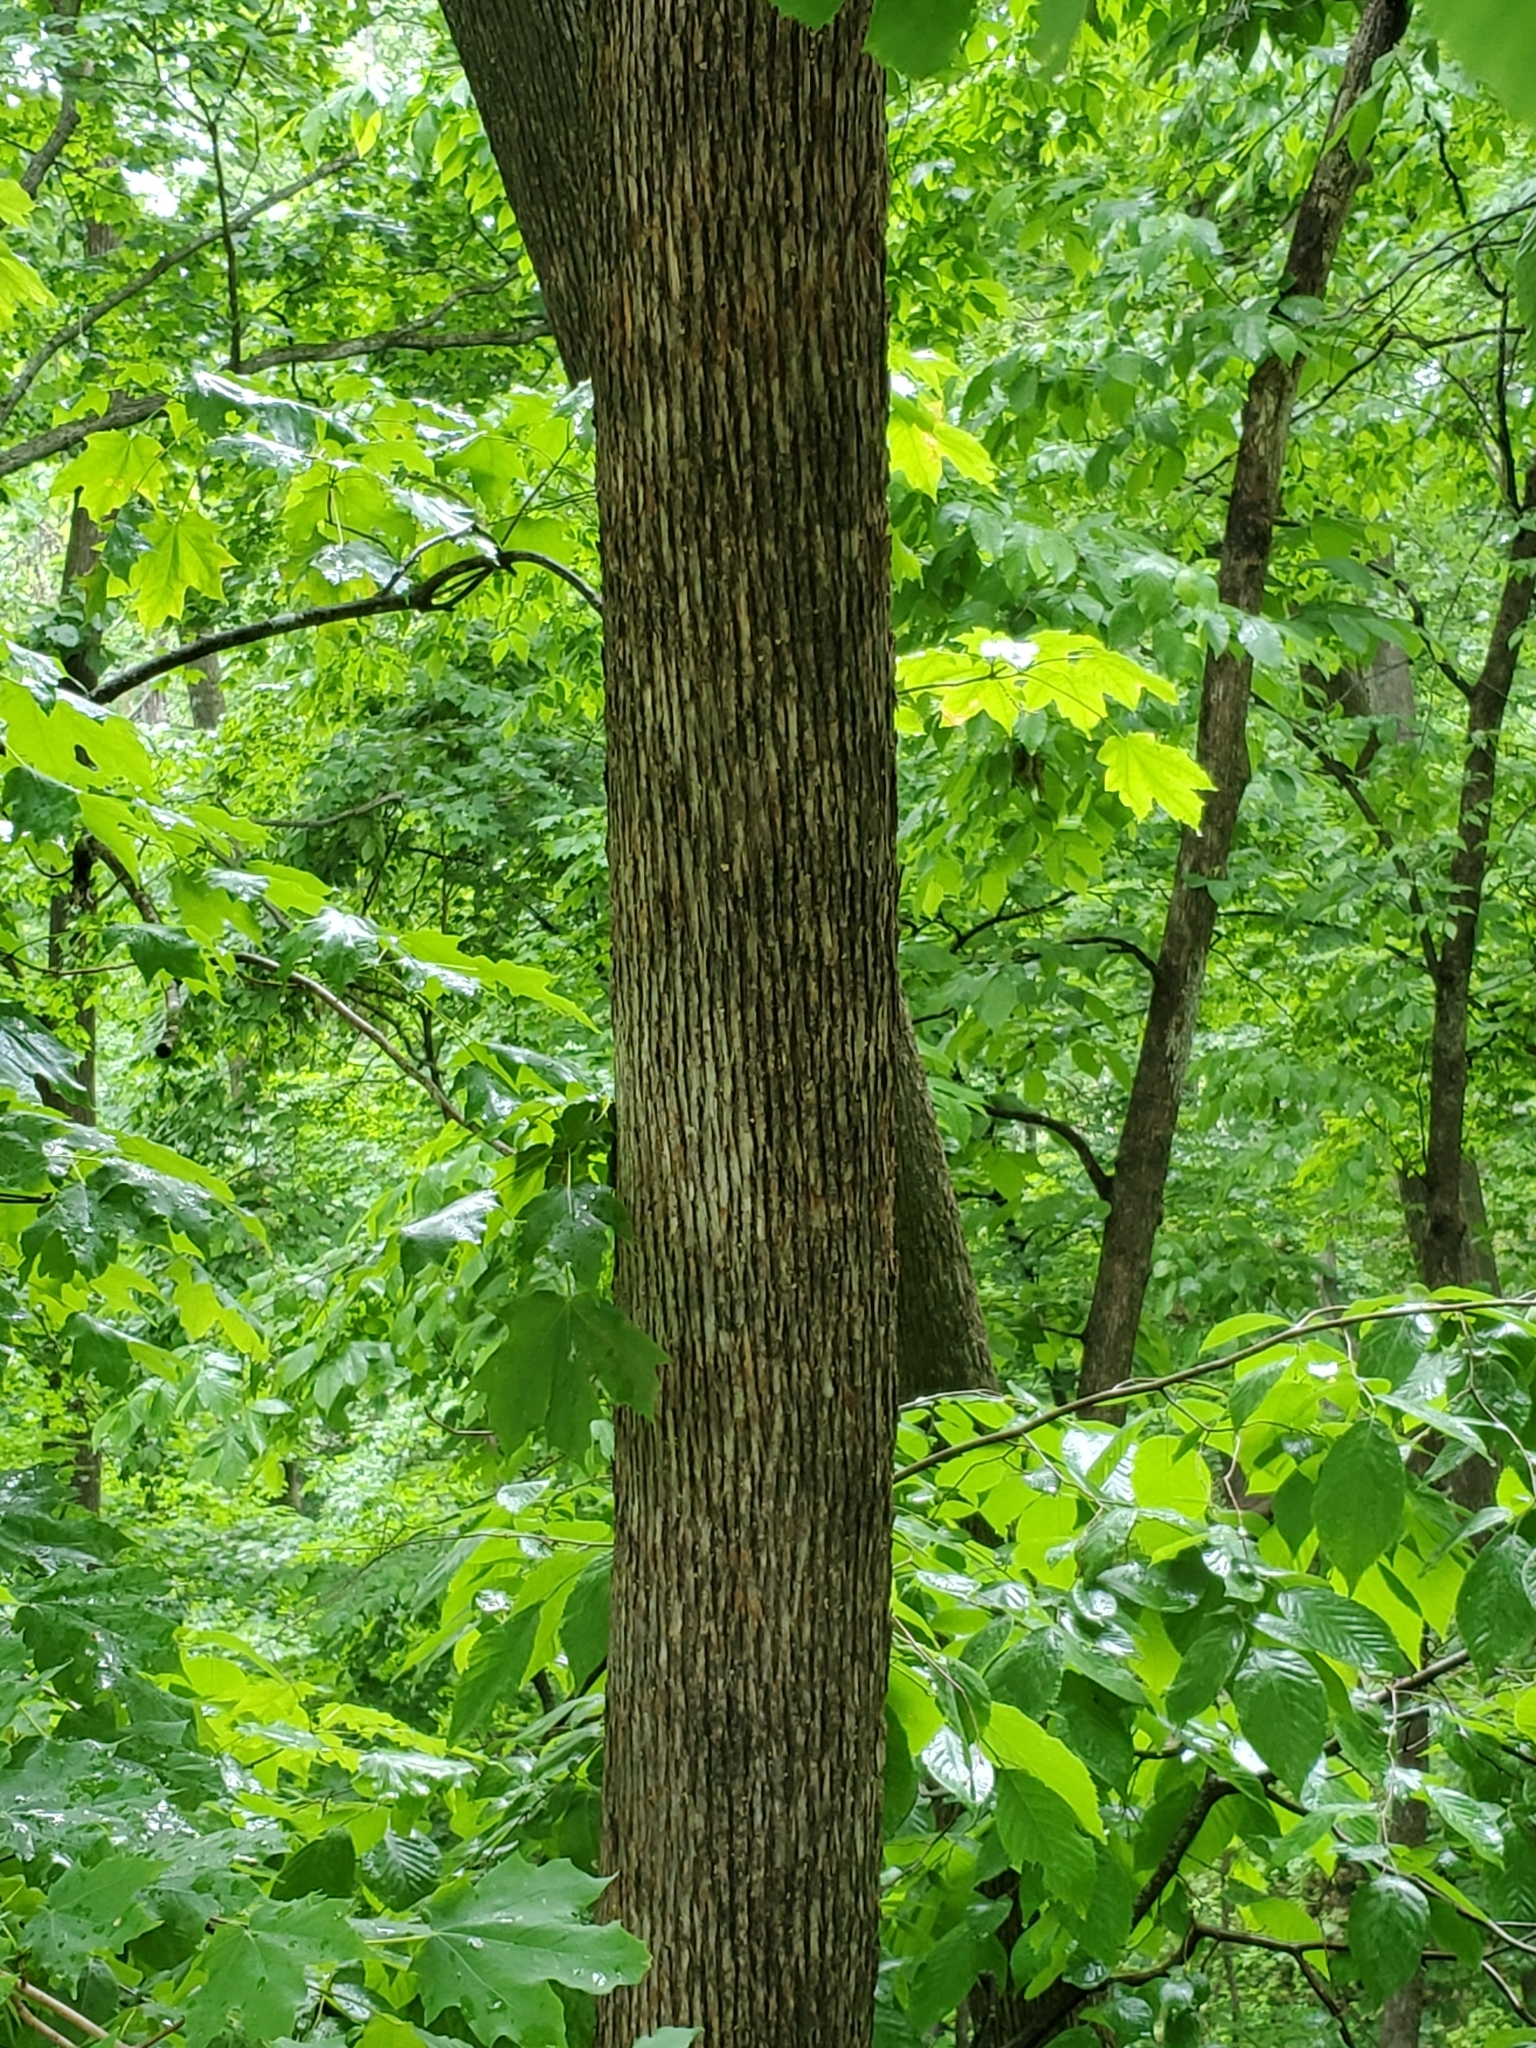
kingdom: Plantae
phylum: Tracheophyta
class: Magnoliopsida
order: Fagales
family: Betulaceae
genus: Ostrya
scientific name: Ostrya virginiana
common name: Ironwood
